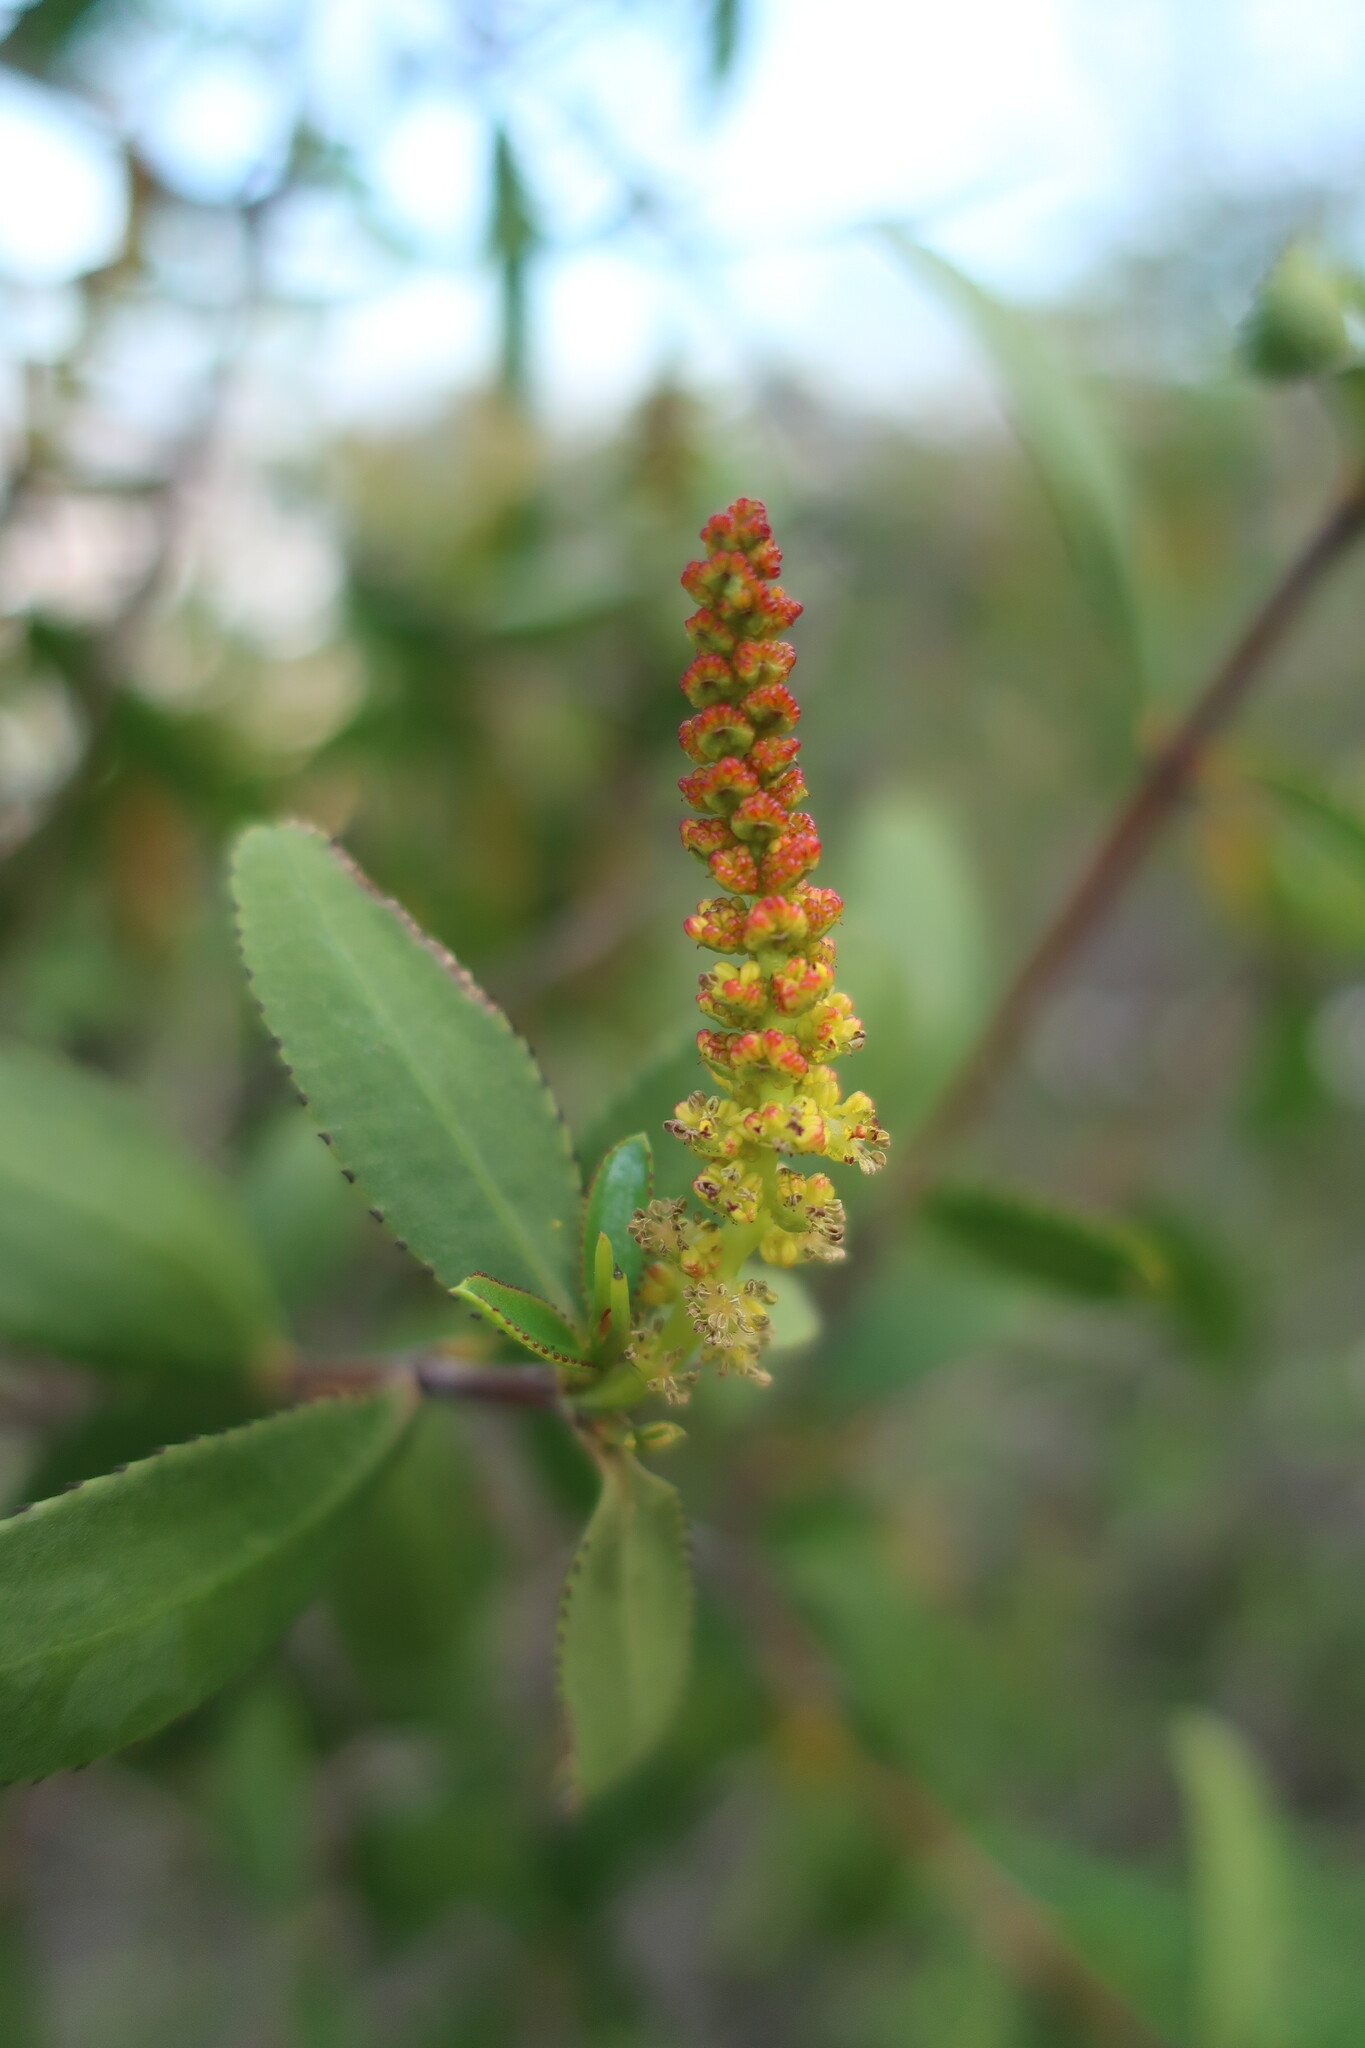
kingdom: Plantae
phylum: Tracheophyta
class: Magnoliopsida
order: Malpighiales
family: Euphorbiaceae
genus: Colliguaja
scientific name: Colliguaja odorifera
